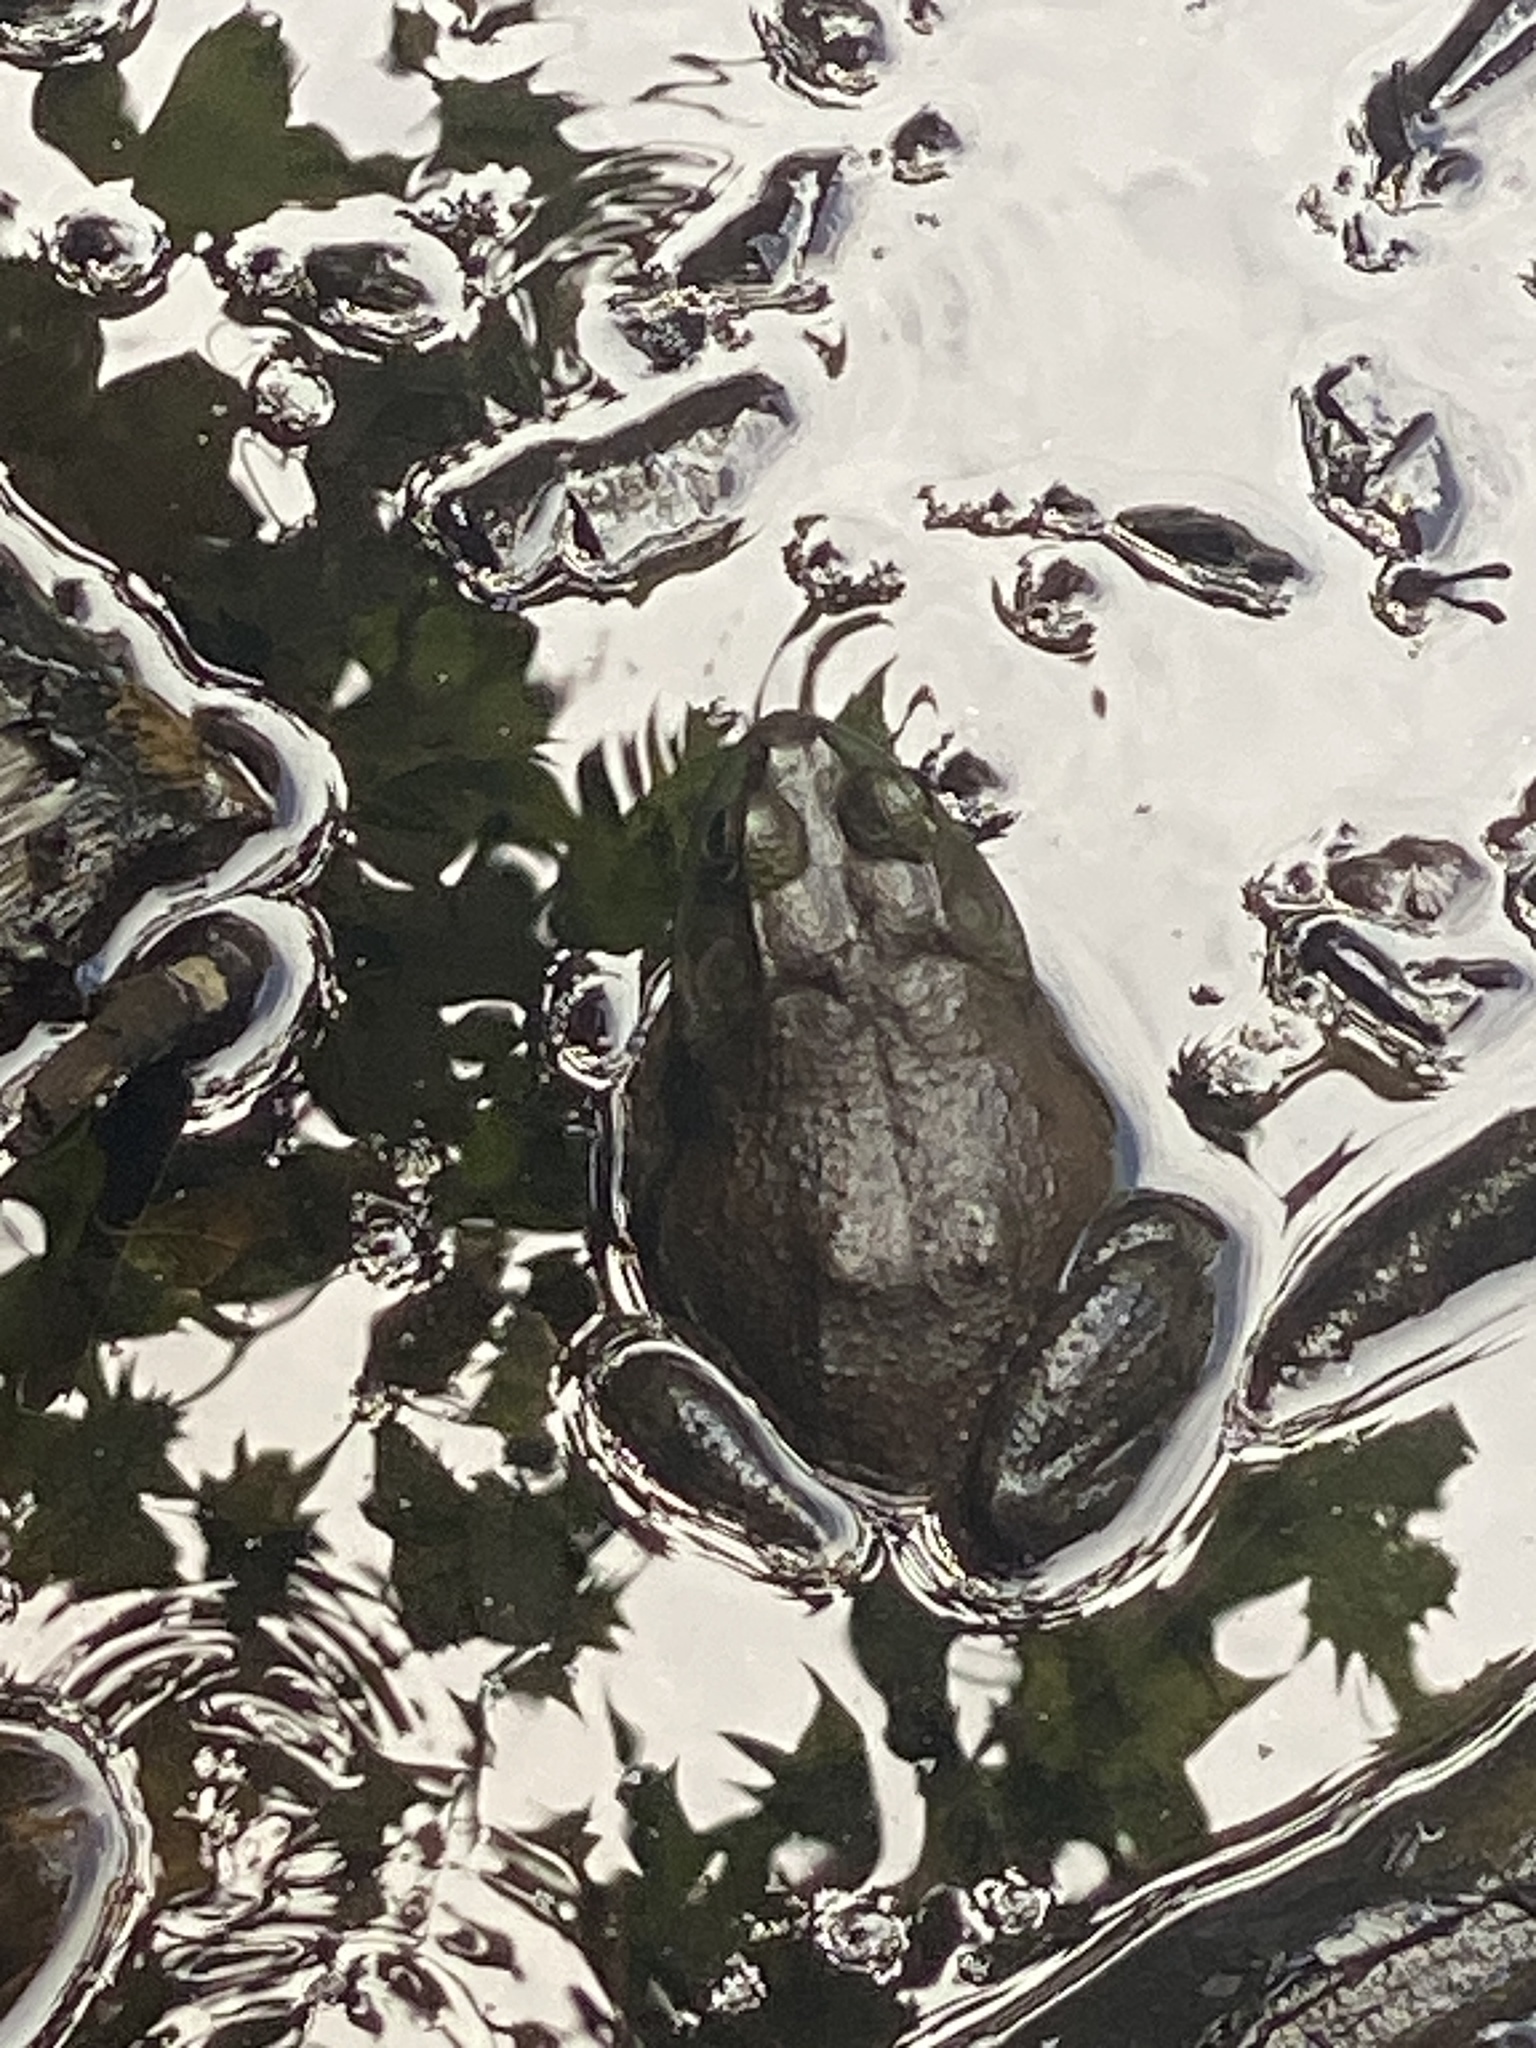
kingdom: Animalia
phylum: Chordata
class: Amphibia
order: Anura
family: Ranidae
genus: Lithobates
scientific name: Lithobates catesbeianus
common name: American bullfrog
